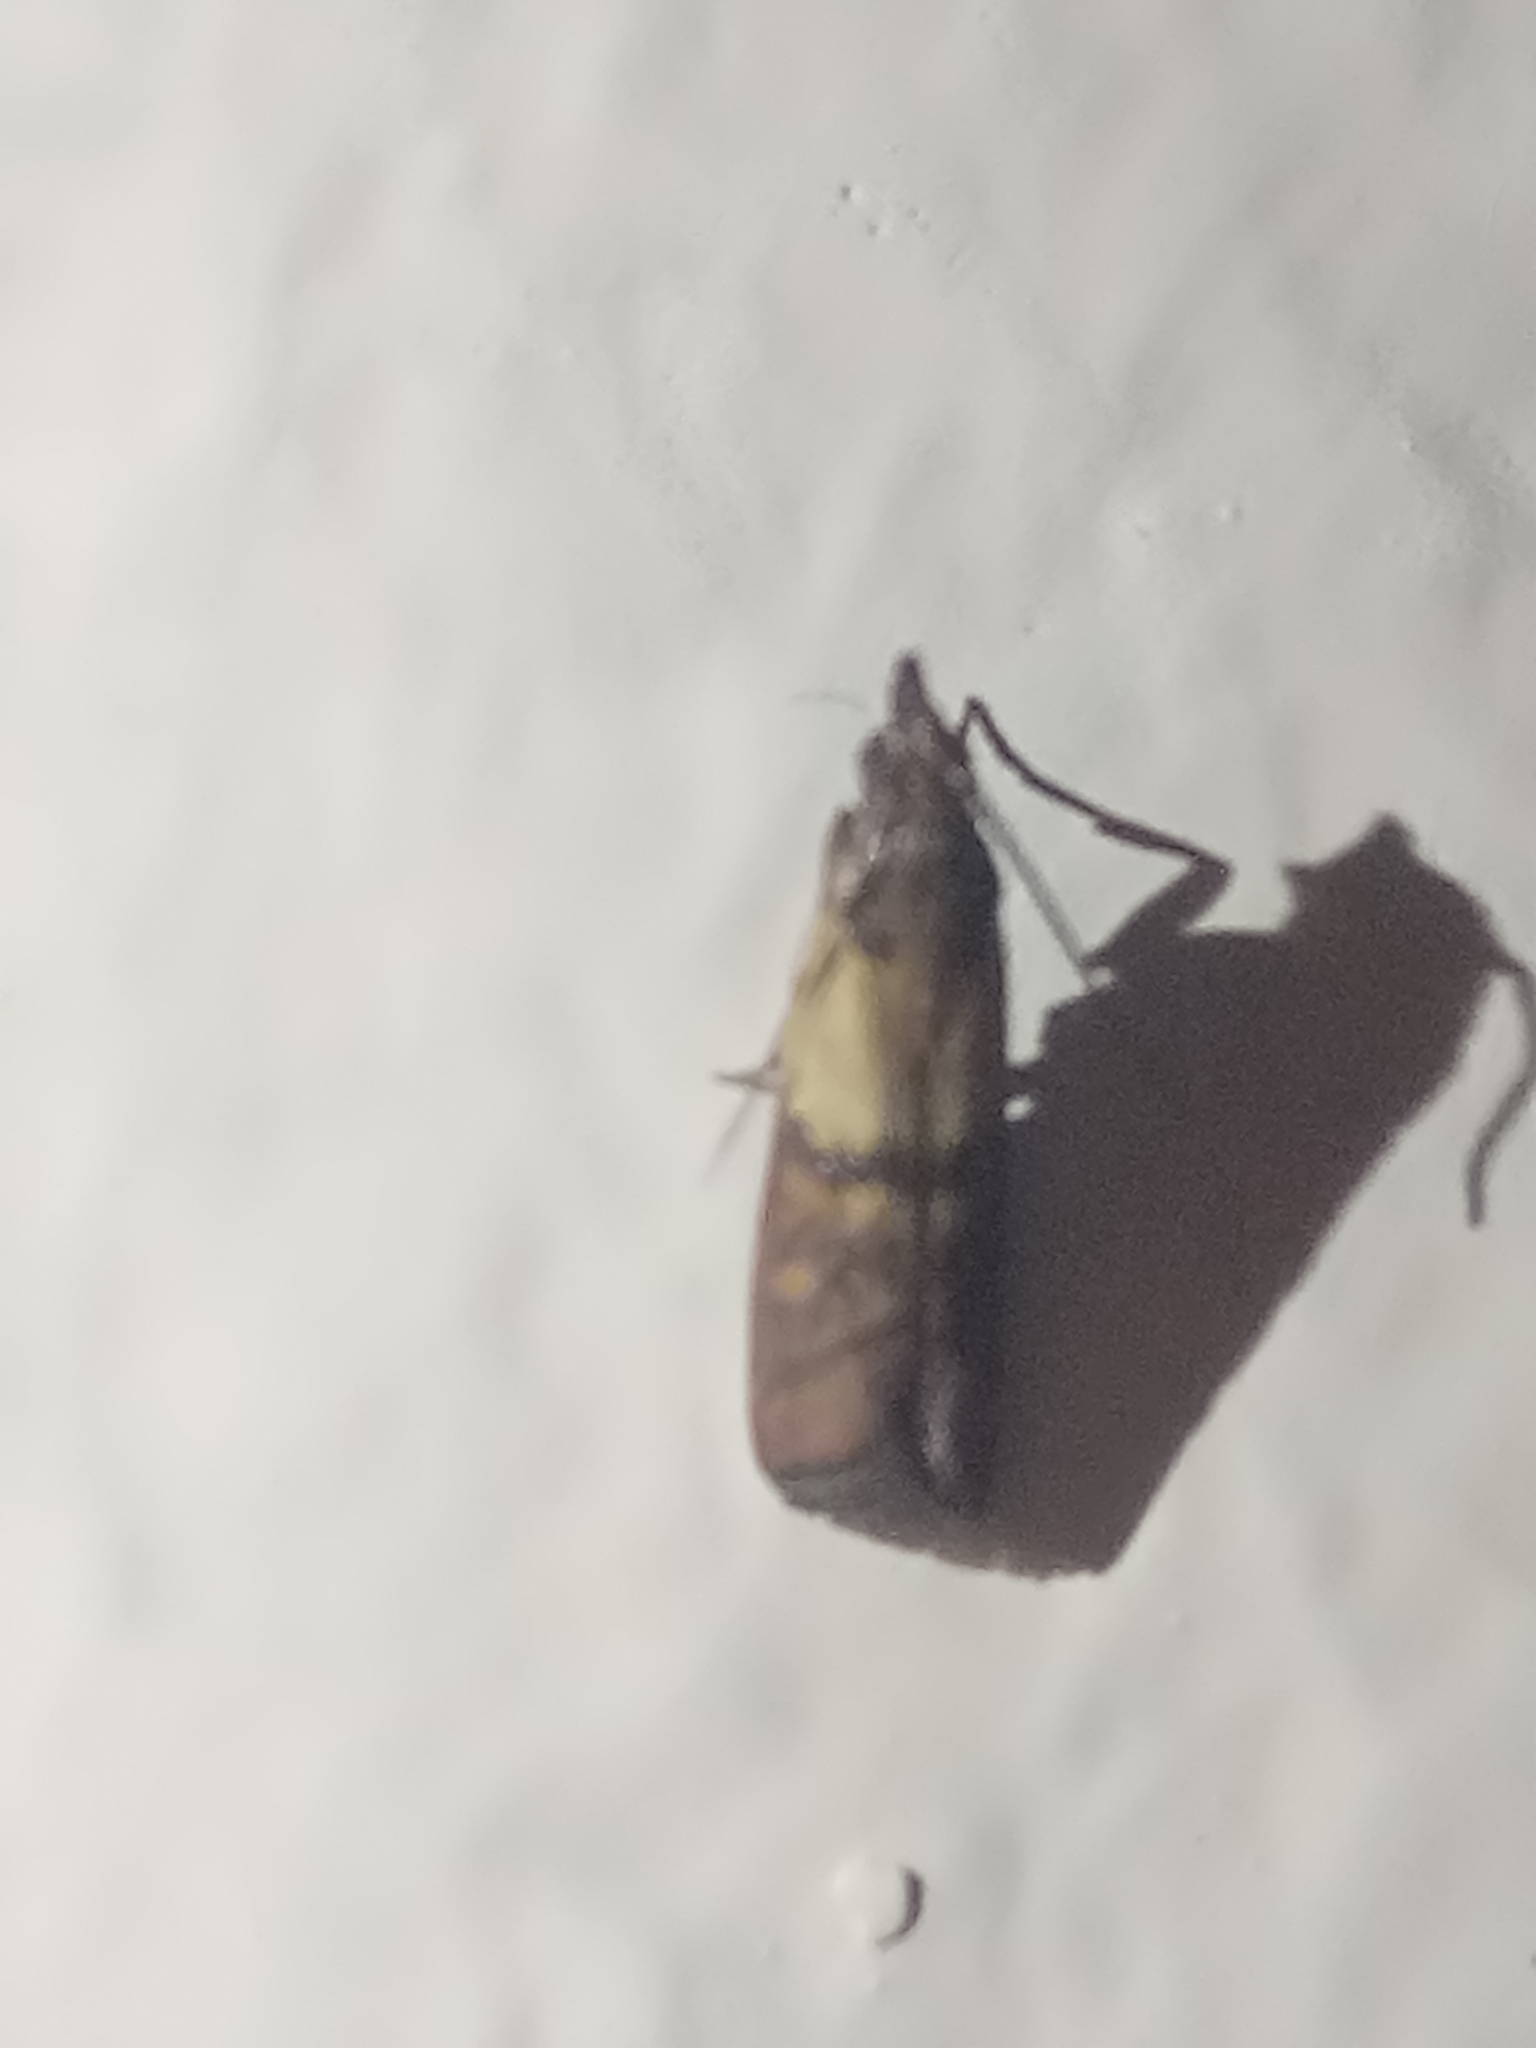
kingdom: Animalia
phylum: Arthropoda
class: Insecta
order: Lepidoptera
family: Pyralidae
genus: Plodia
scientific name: Plodia interpunctella
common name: Indian meal moth
